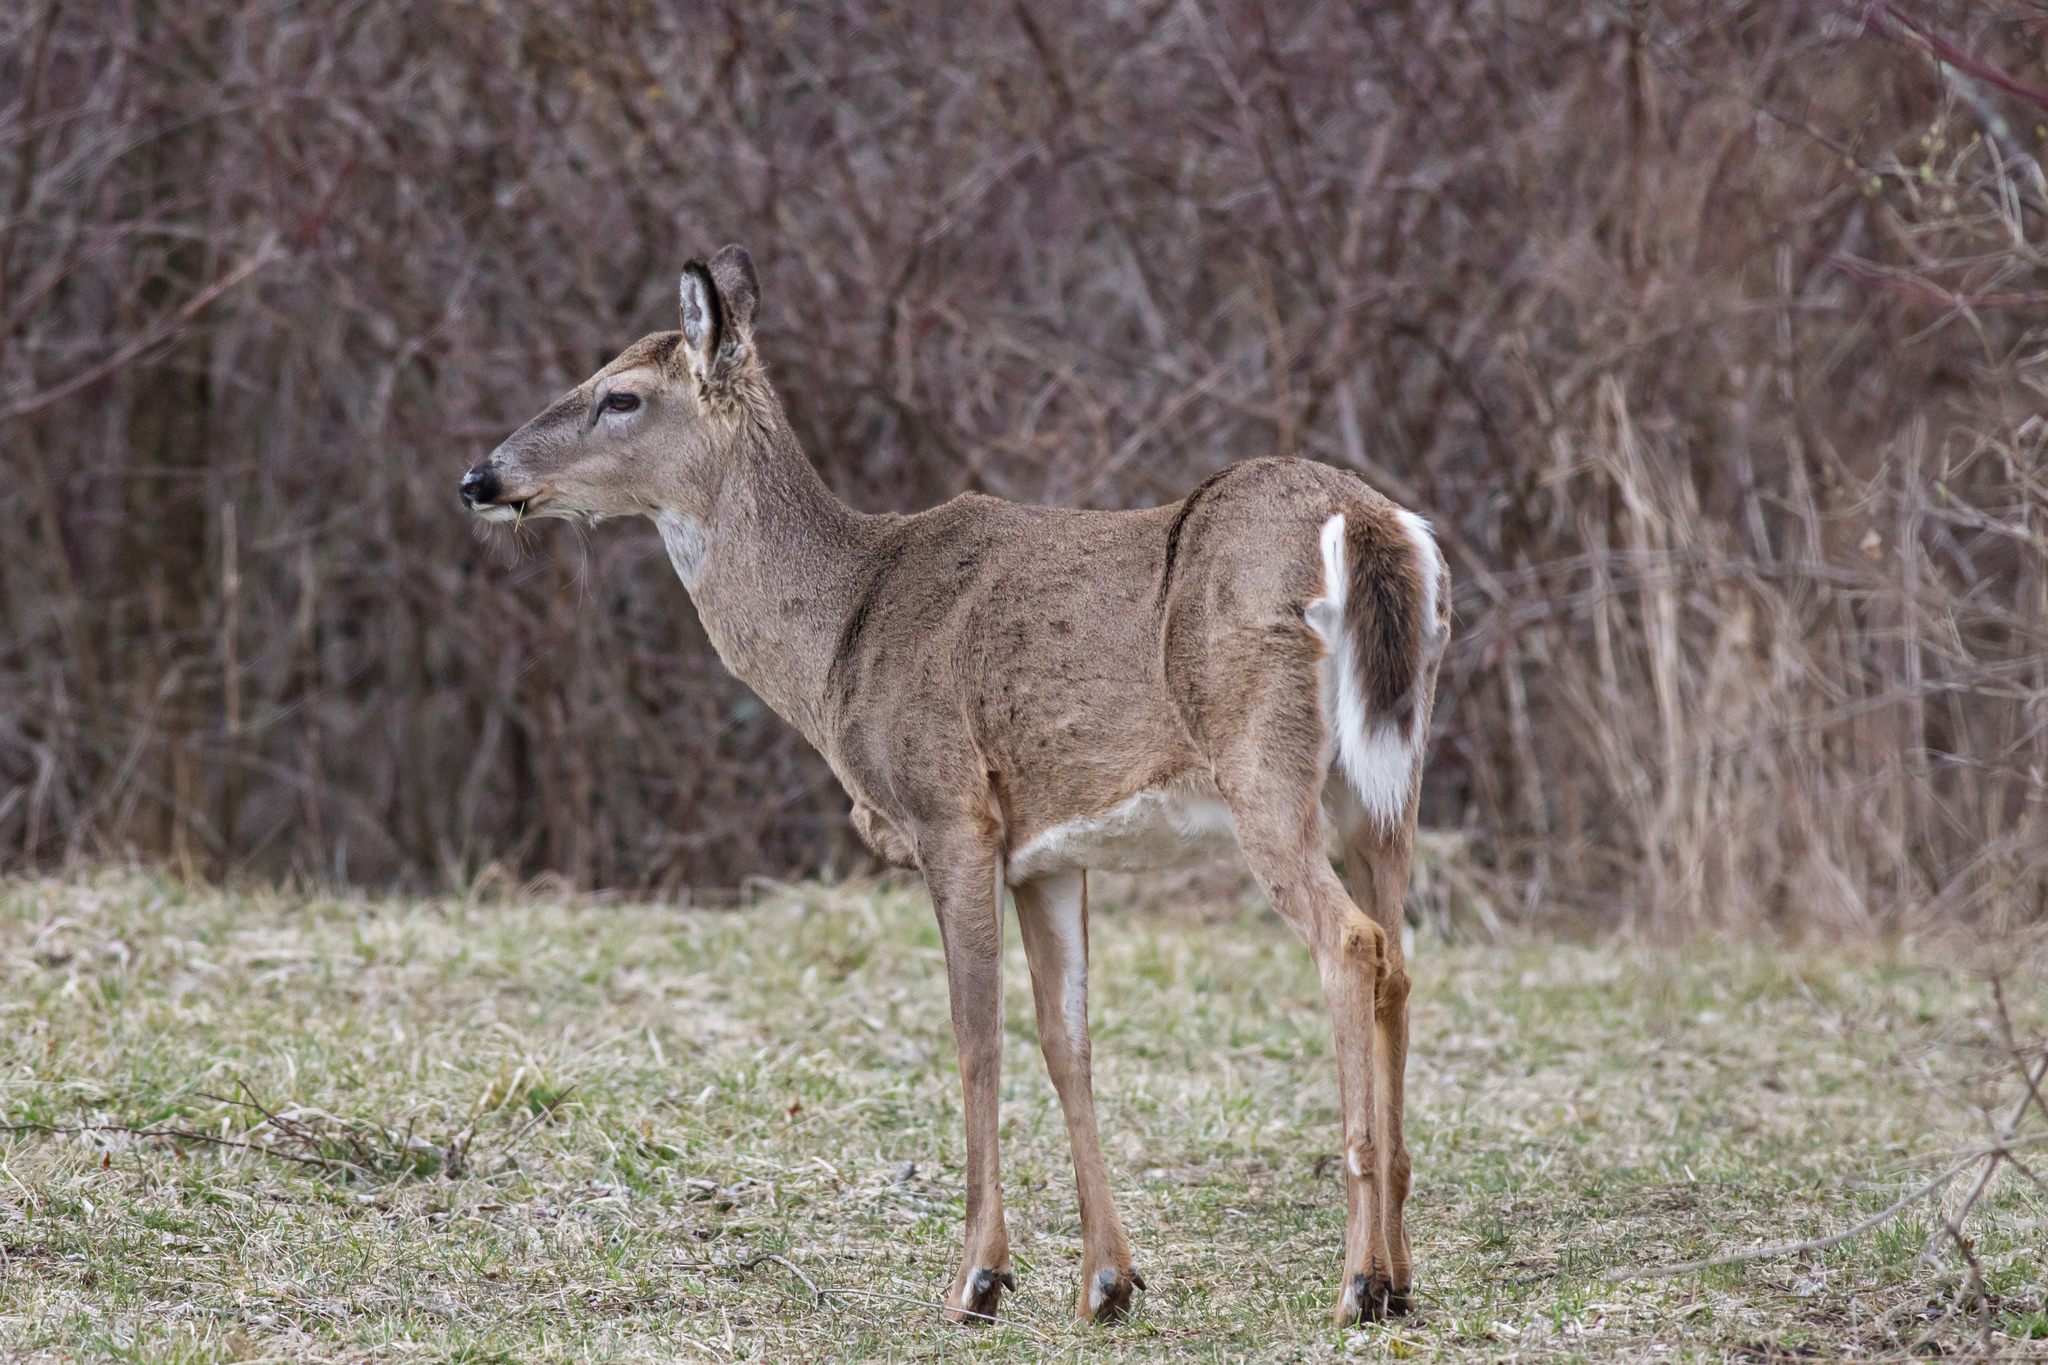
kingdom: Animalia
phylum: Chordata
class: Mammalia
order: Artiodactyla
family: Cervidae
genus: Odocoileus
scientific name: Odocoileus virginianus
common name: White-tailed deer
